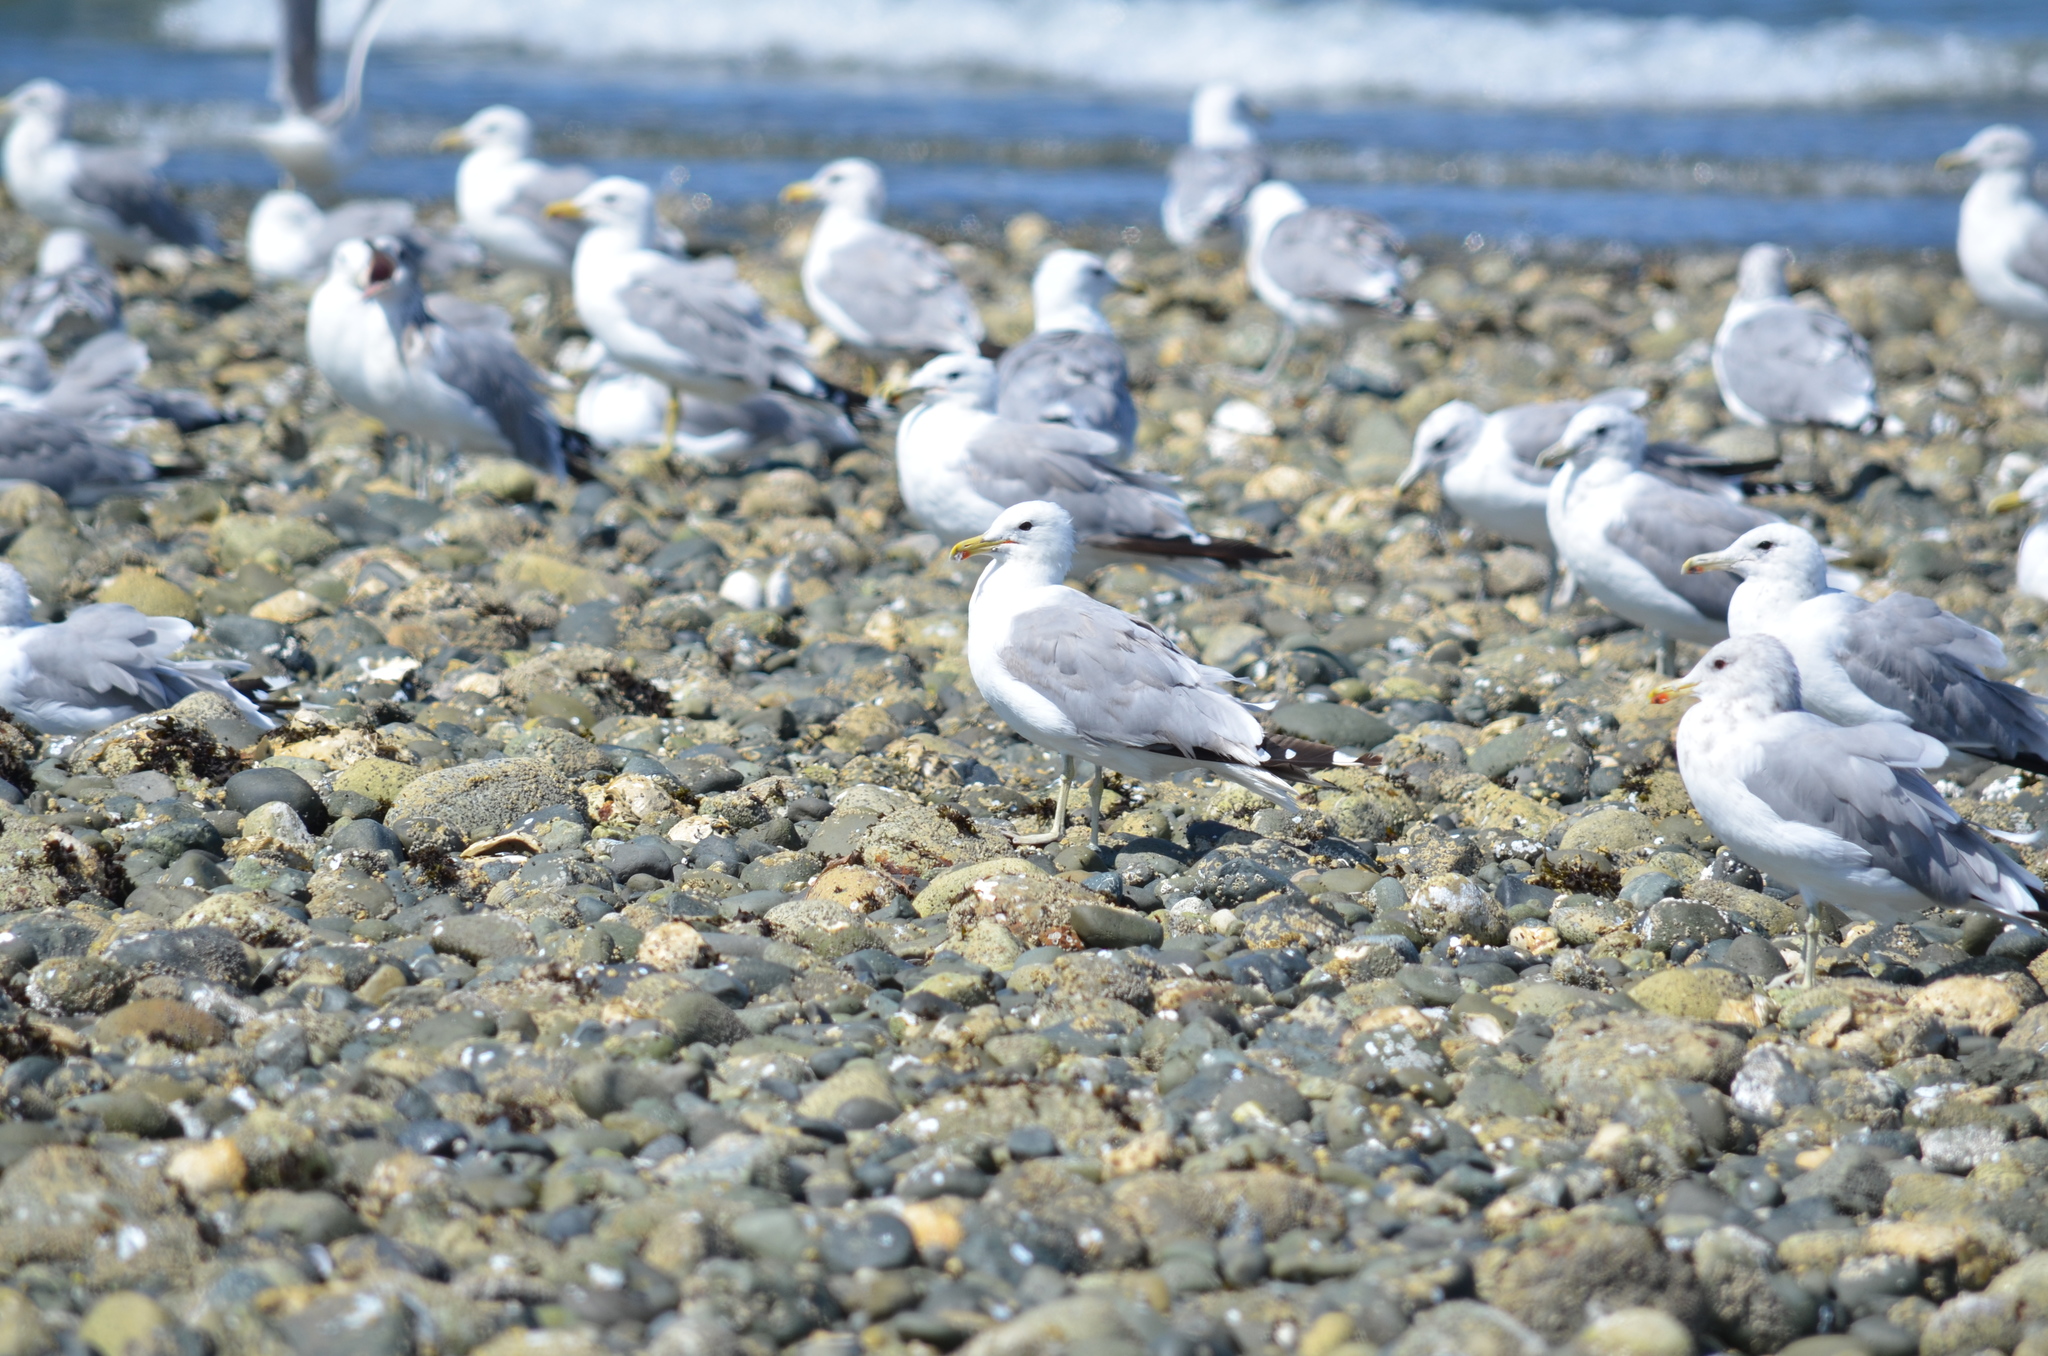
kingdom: Animalia
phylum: Chordata
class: Aves
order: Charadriiformes
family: Laridae
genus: Larus
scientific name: Larus californicus
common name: California gull
